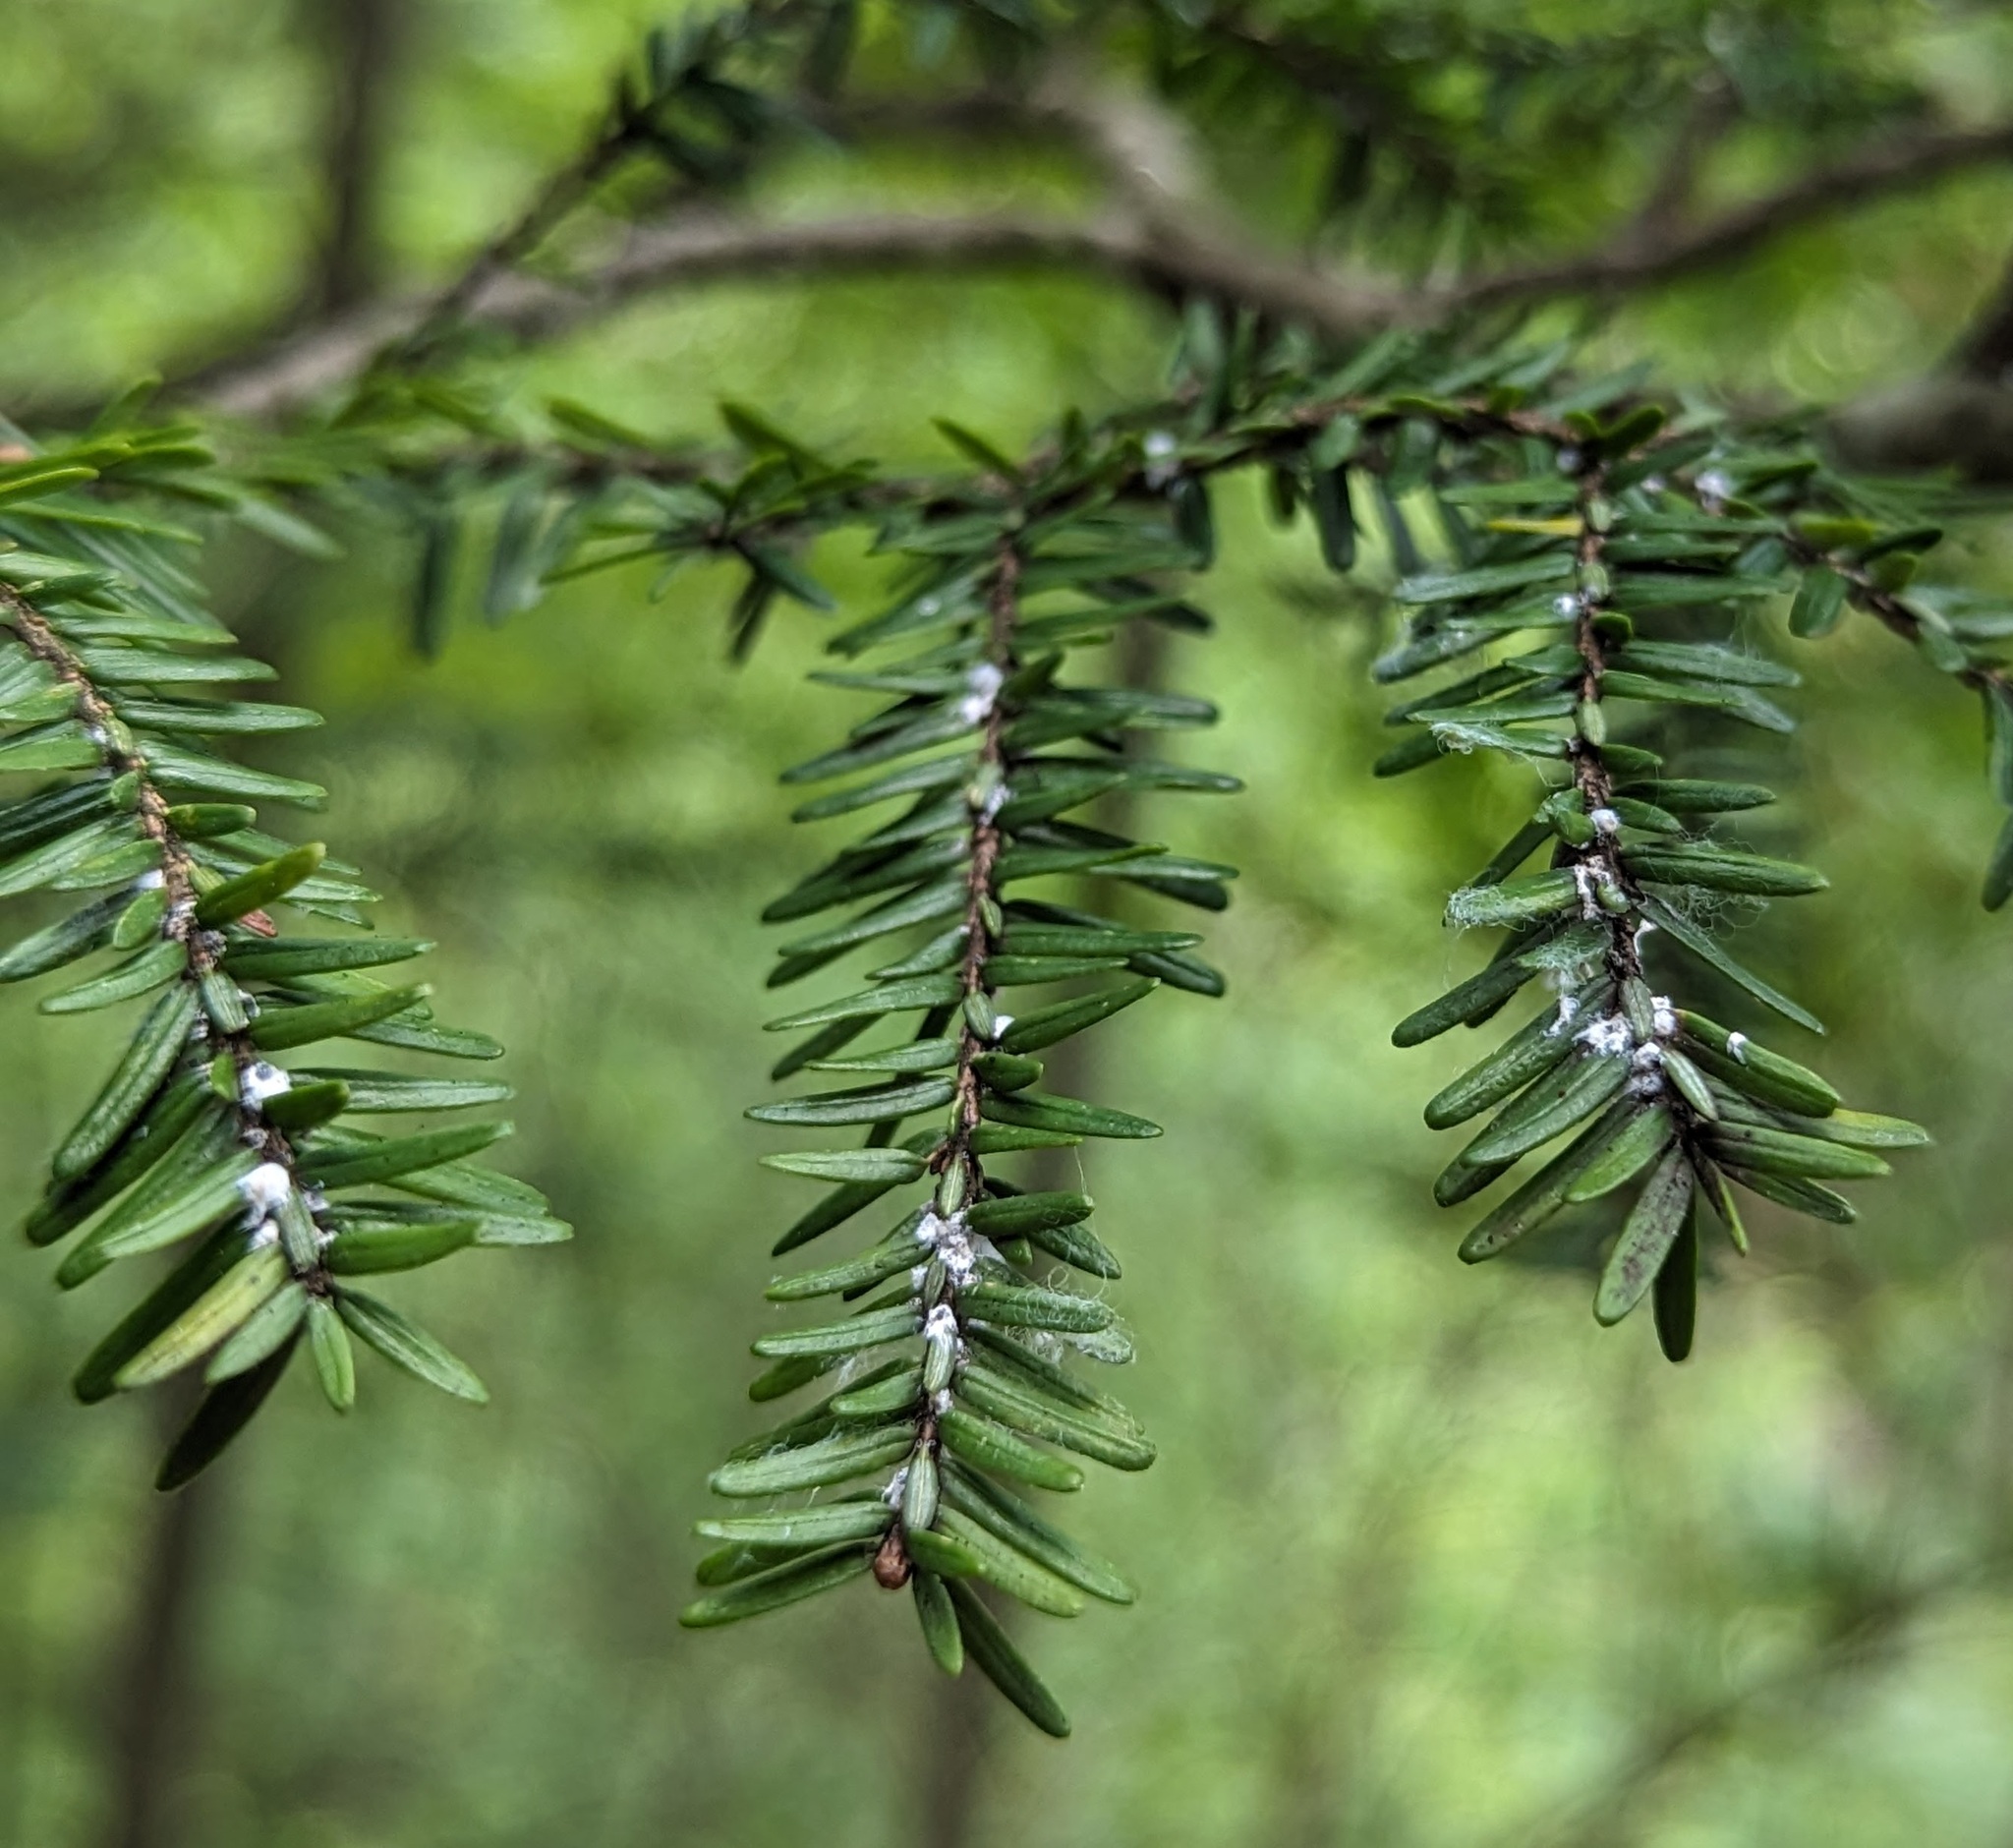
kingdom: Plantae
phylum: Tracheophyta
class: Pinopsida
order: Pinales
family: Pinaceae
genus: Tsuga
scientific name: Tsuga canadensis
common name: Eastern hemlock
